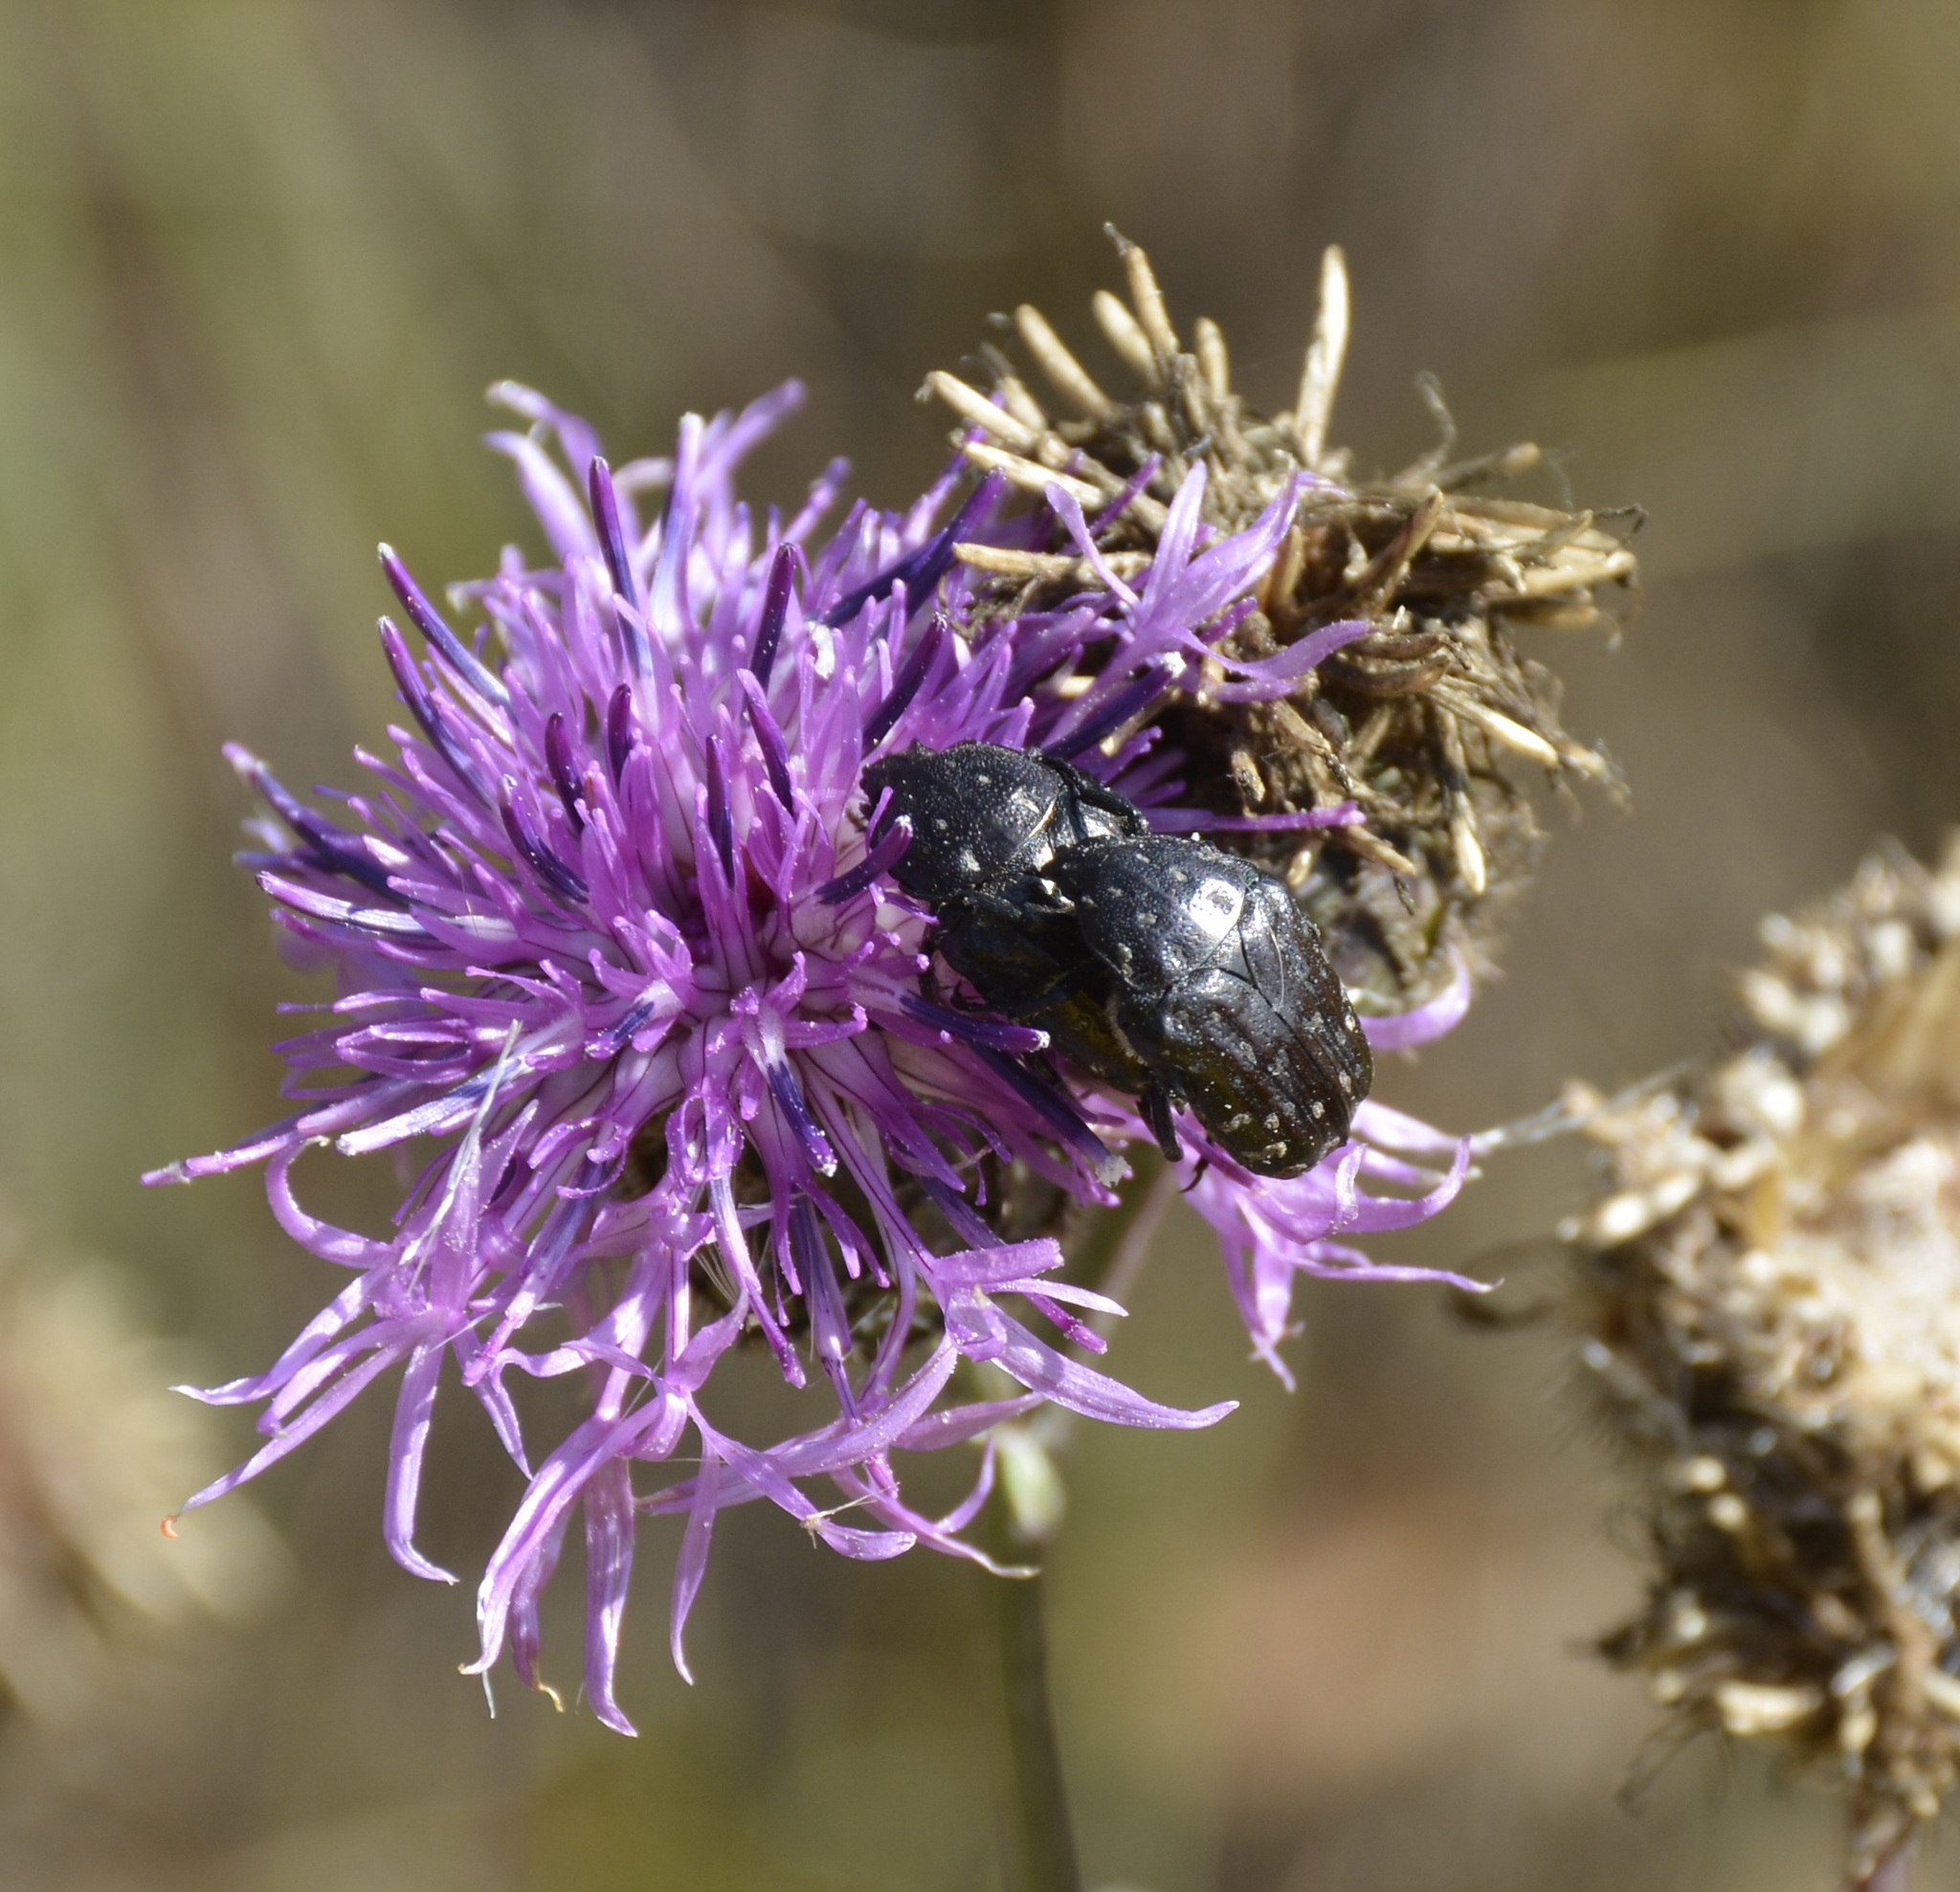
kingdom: Animalia
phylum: Arthropoda
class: Insecta
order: Coleoptera
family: Scarabaeidae
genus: Oxythyrea
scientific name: Oxythyrea funesta
